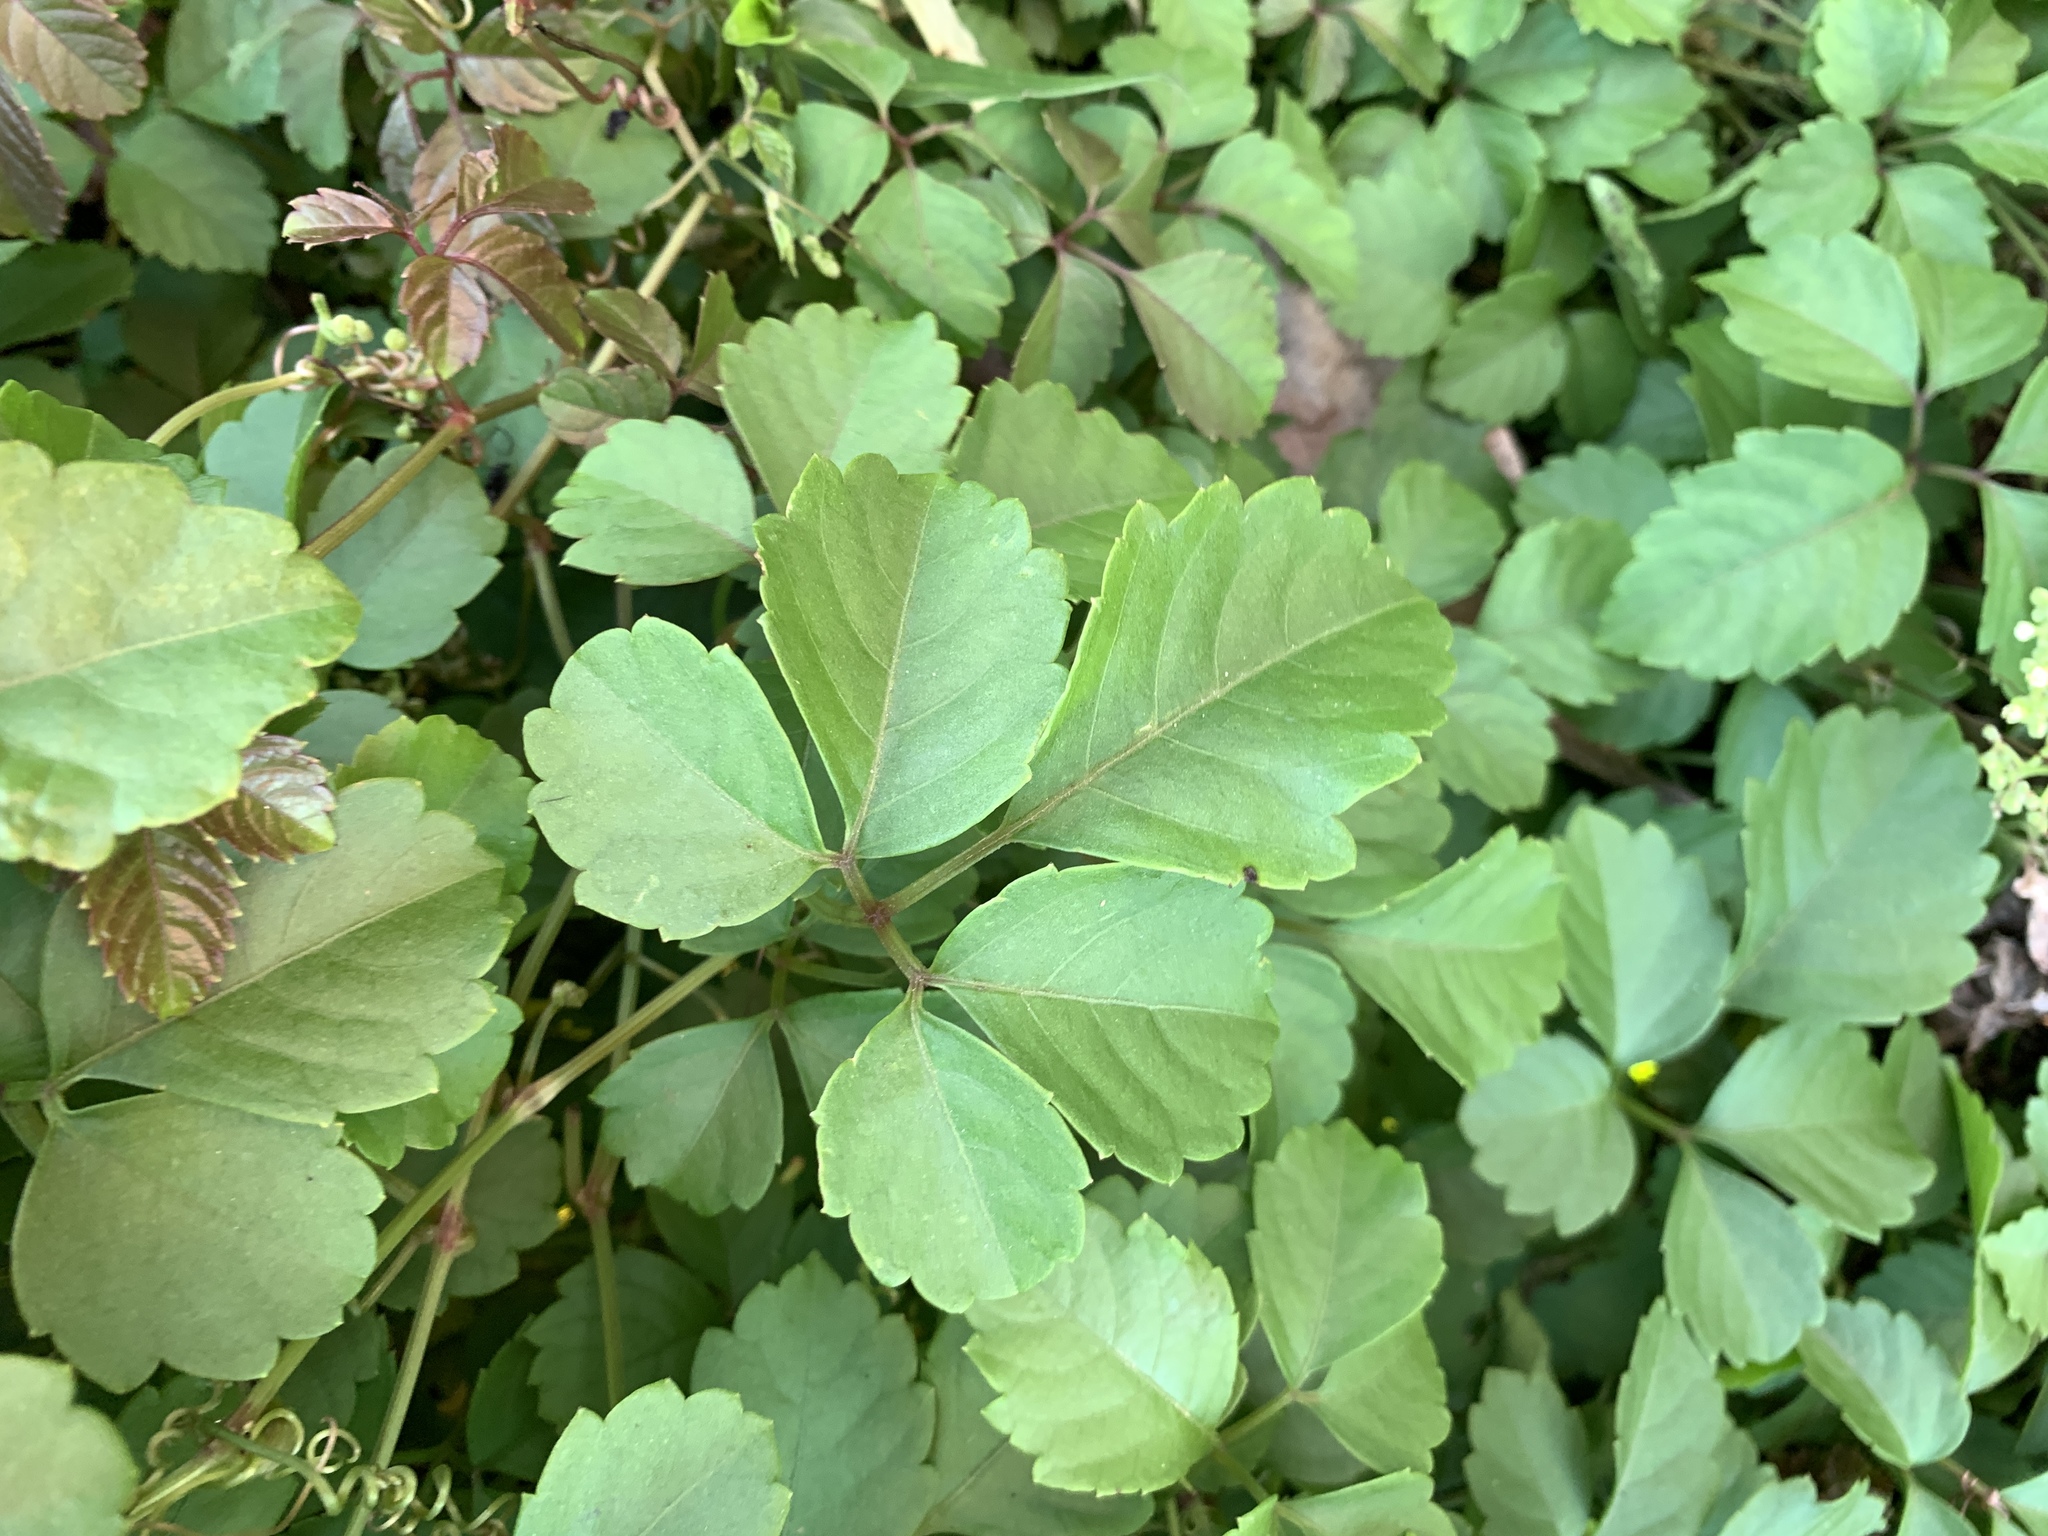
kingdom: Plantae
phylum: Tracheophyta
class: Magnoliopsida
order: Vitales
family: Vitaceae
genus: Causonis
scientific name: Causonis japonica
